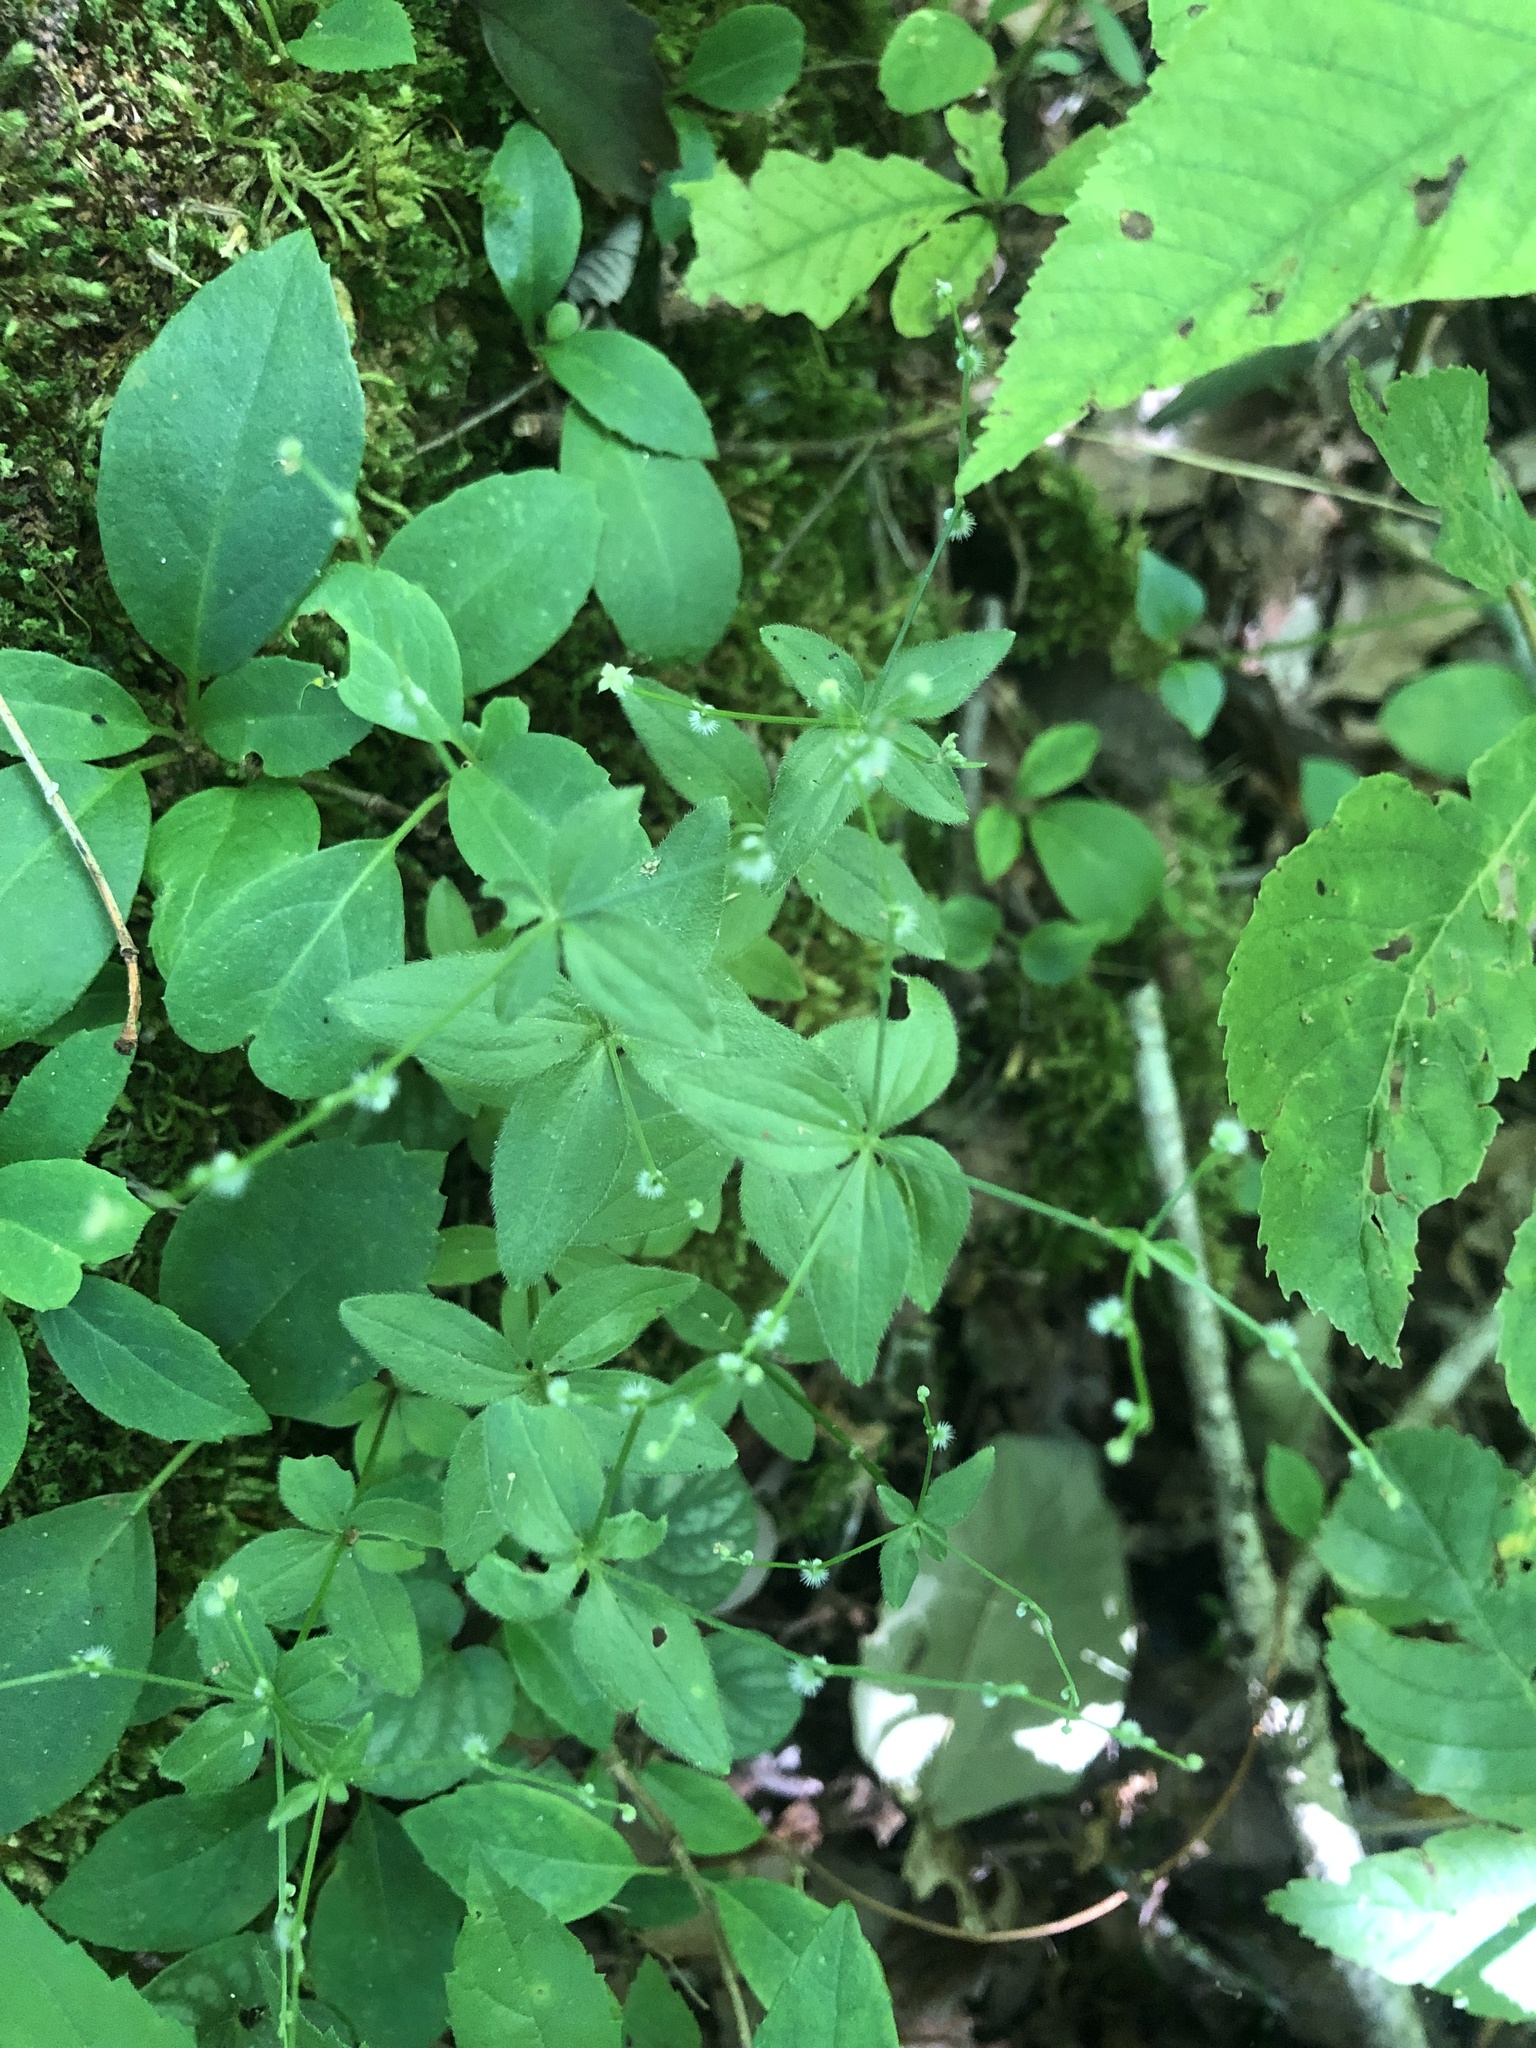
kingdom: Plantae
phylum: Tracheophyta
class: Magnoliopsida
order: Gentianales
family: Rubiaceae
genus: Galium
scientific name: Galium circaezans
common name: Forest bedstraw
